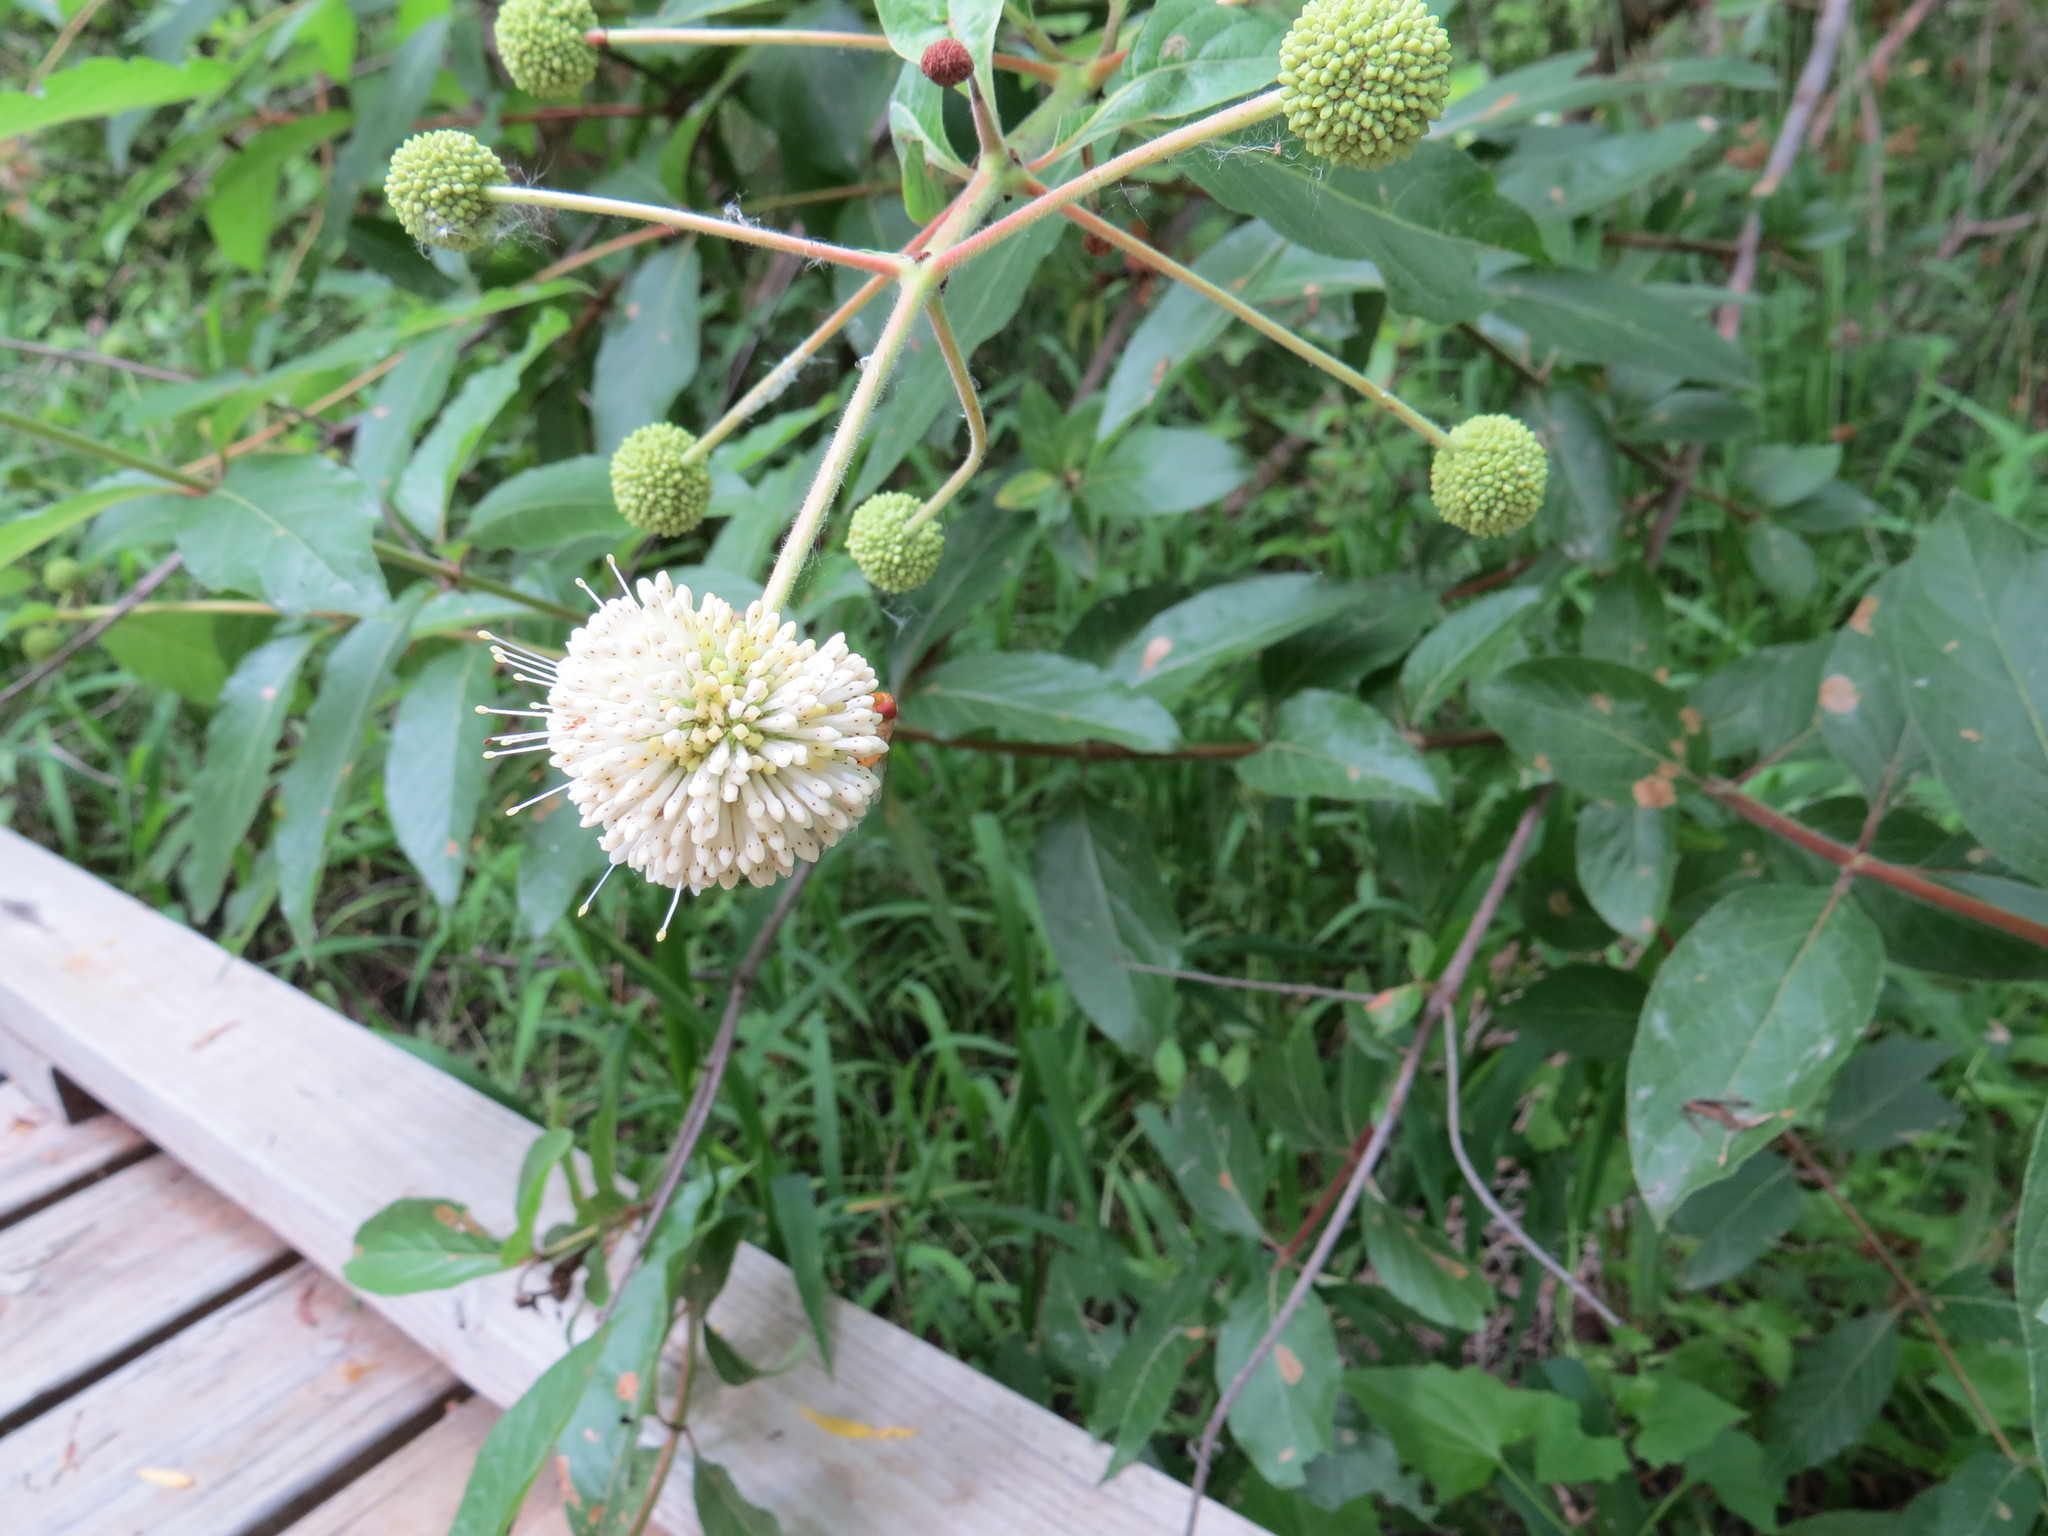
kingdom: Plantae
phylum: Tracheophyta
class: Magnoliopsida
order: Gentianales
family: Rubiaceae
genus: Cephalanthus
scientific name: Cephalanthus occidentalis
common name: Button-willow
